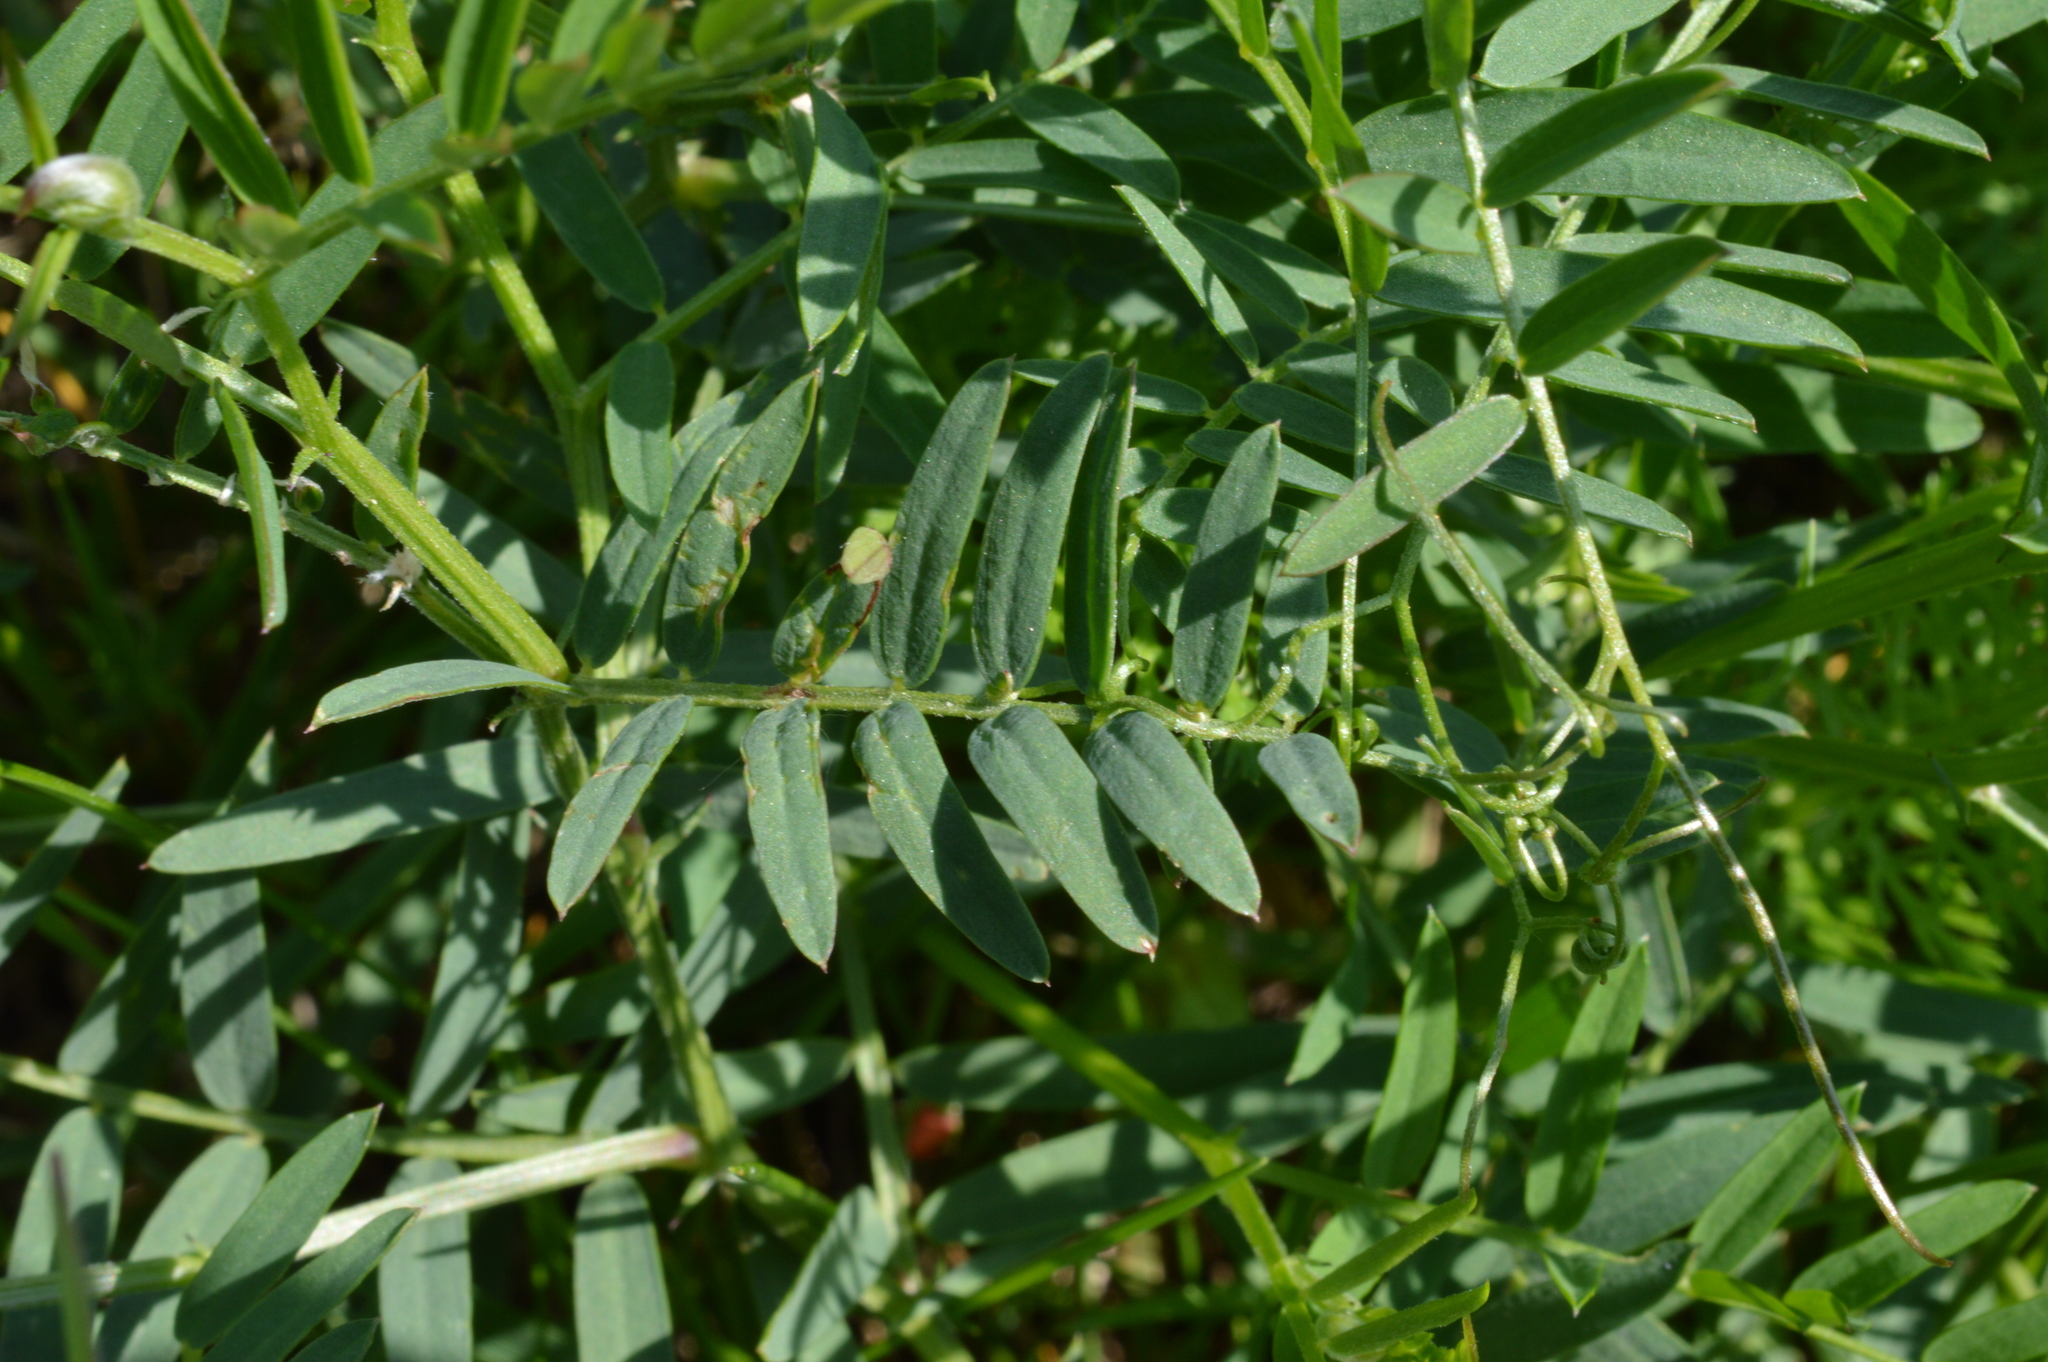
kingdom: Plantae
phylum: Tracheophyta
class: Magnoliopsida
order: Fabales
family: Fabaceae
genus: Vicia
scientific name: Vicia cracca
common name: Bird vetch
